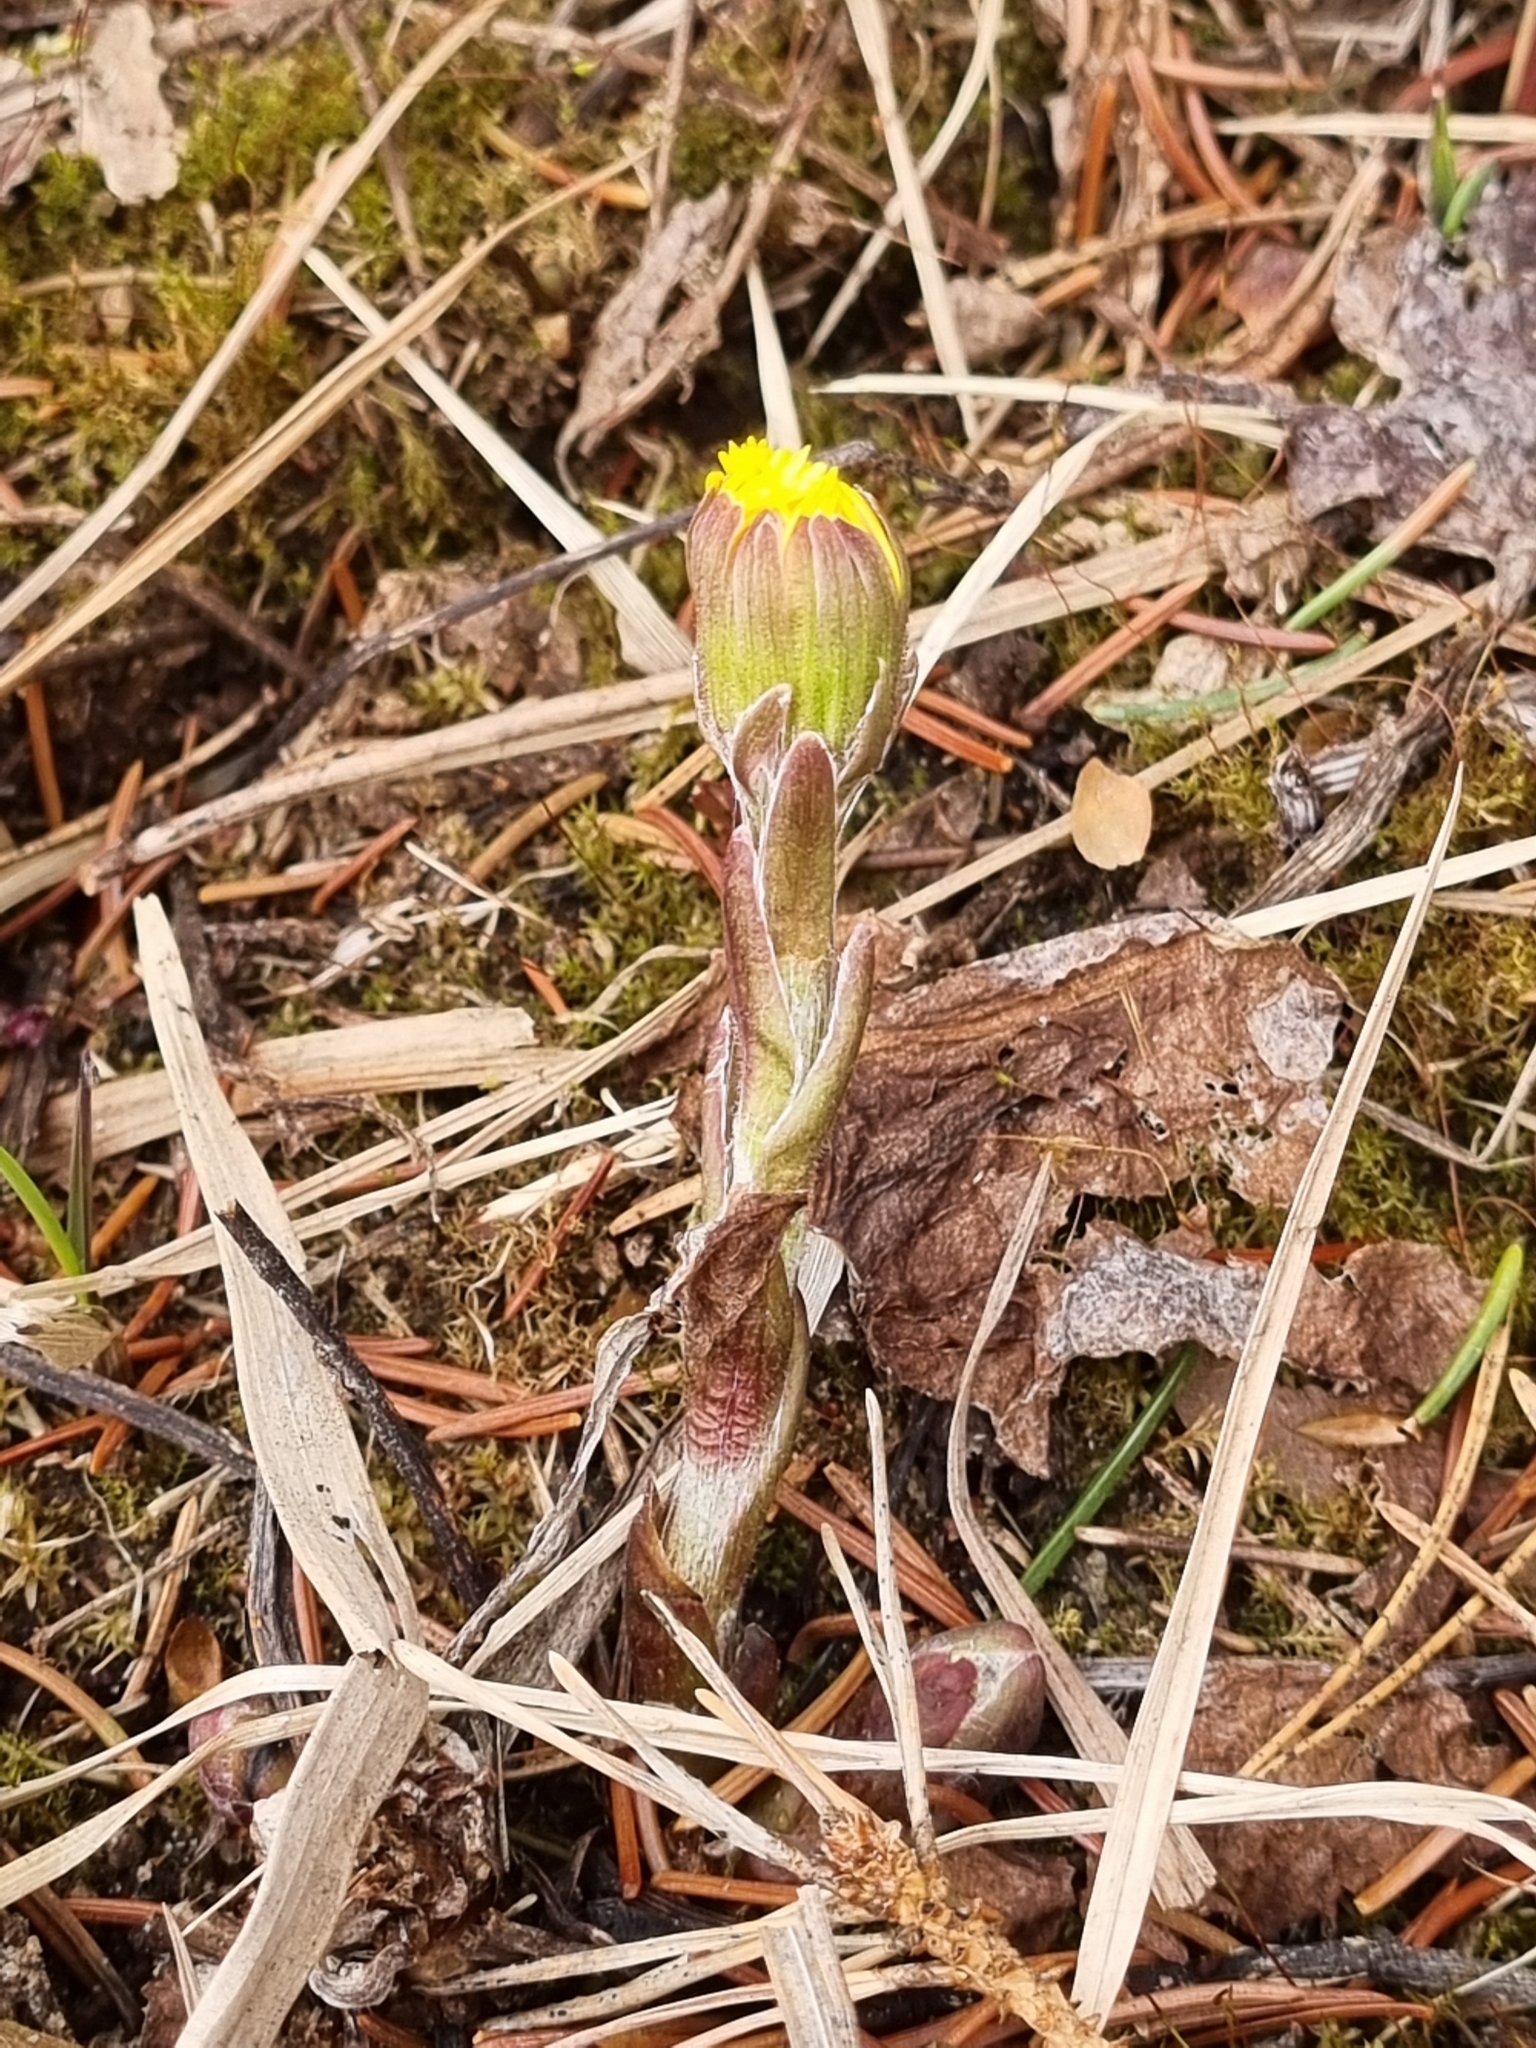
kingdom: Plantae
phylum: Tracheophyta
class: Magnoliopsida
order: Asterales
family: Asteraceae
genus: Tussilago
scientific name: Tussilago farfara
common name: Coltsfoot
